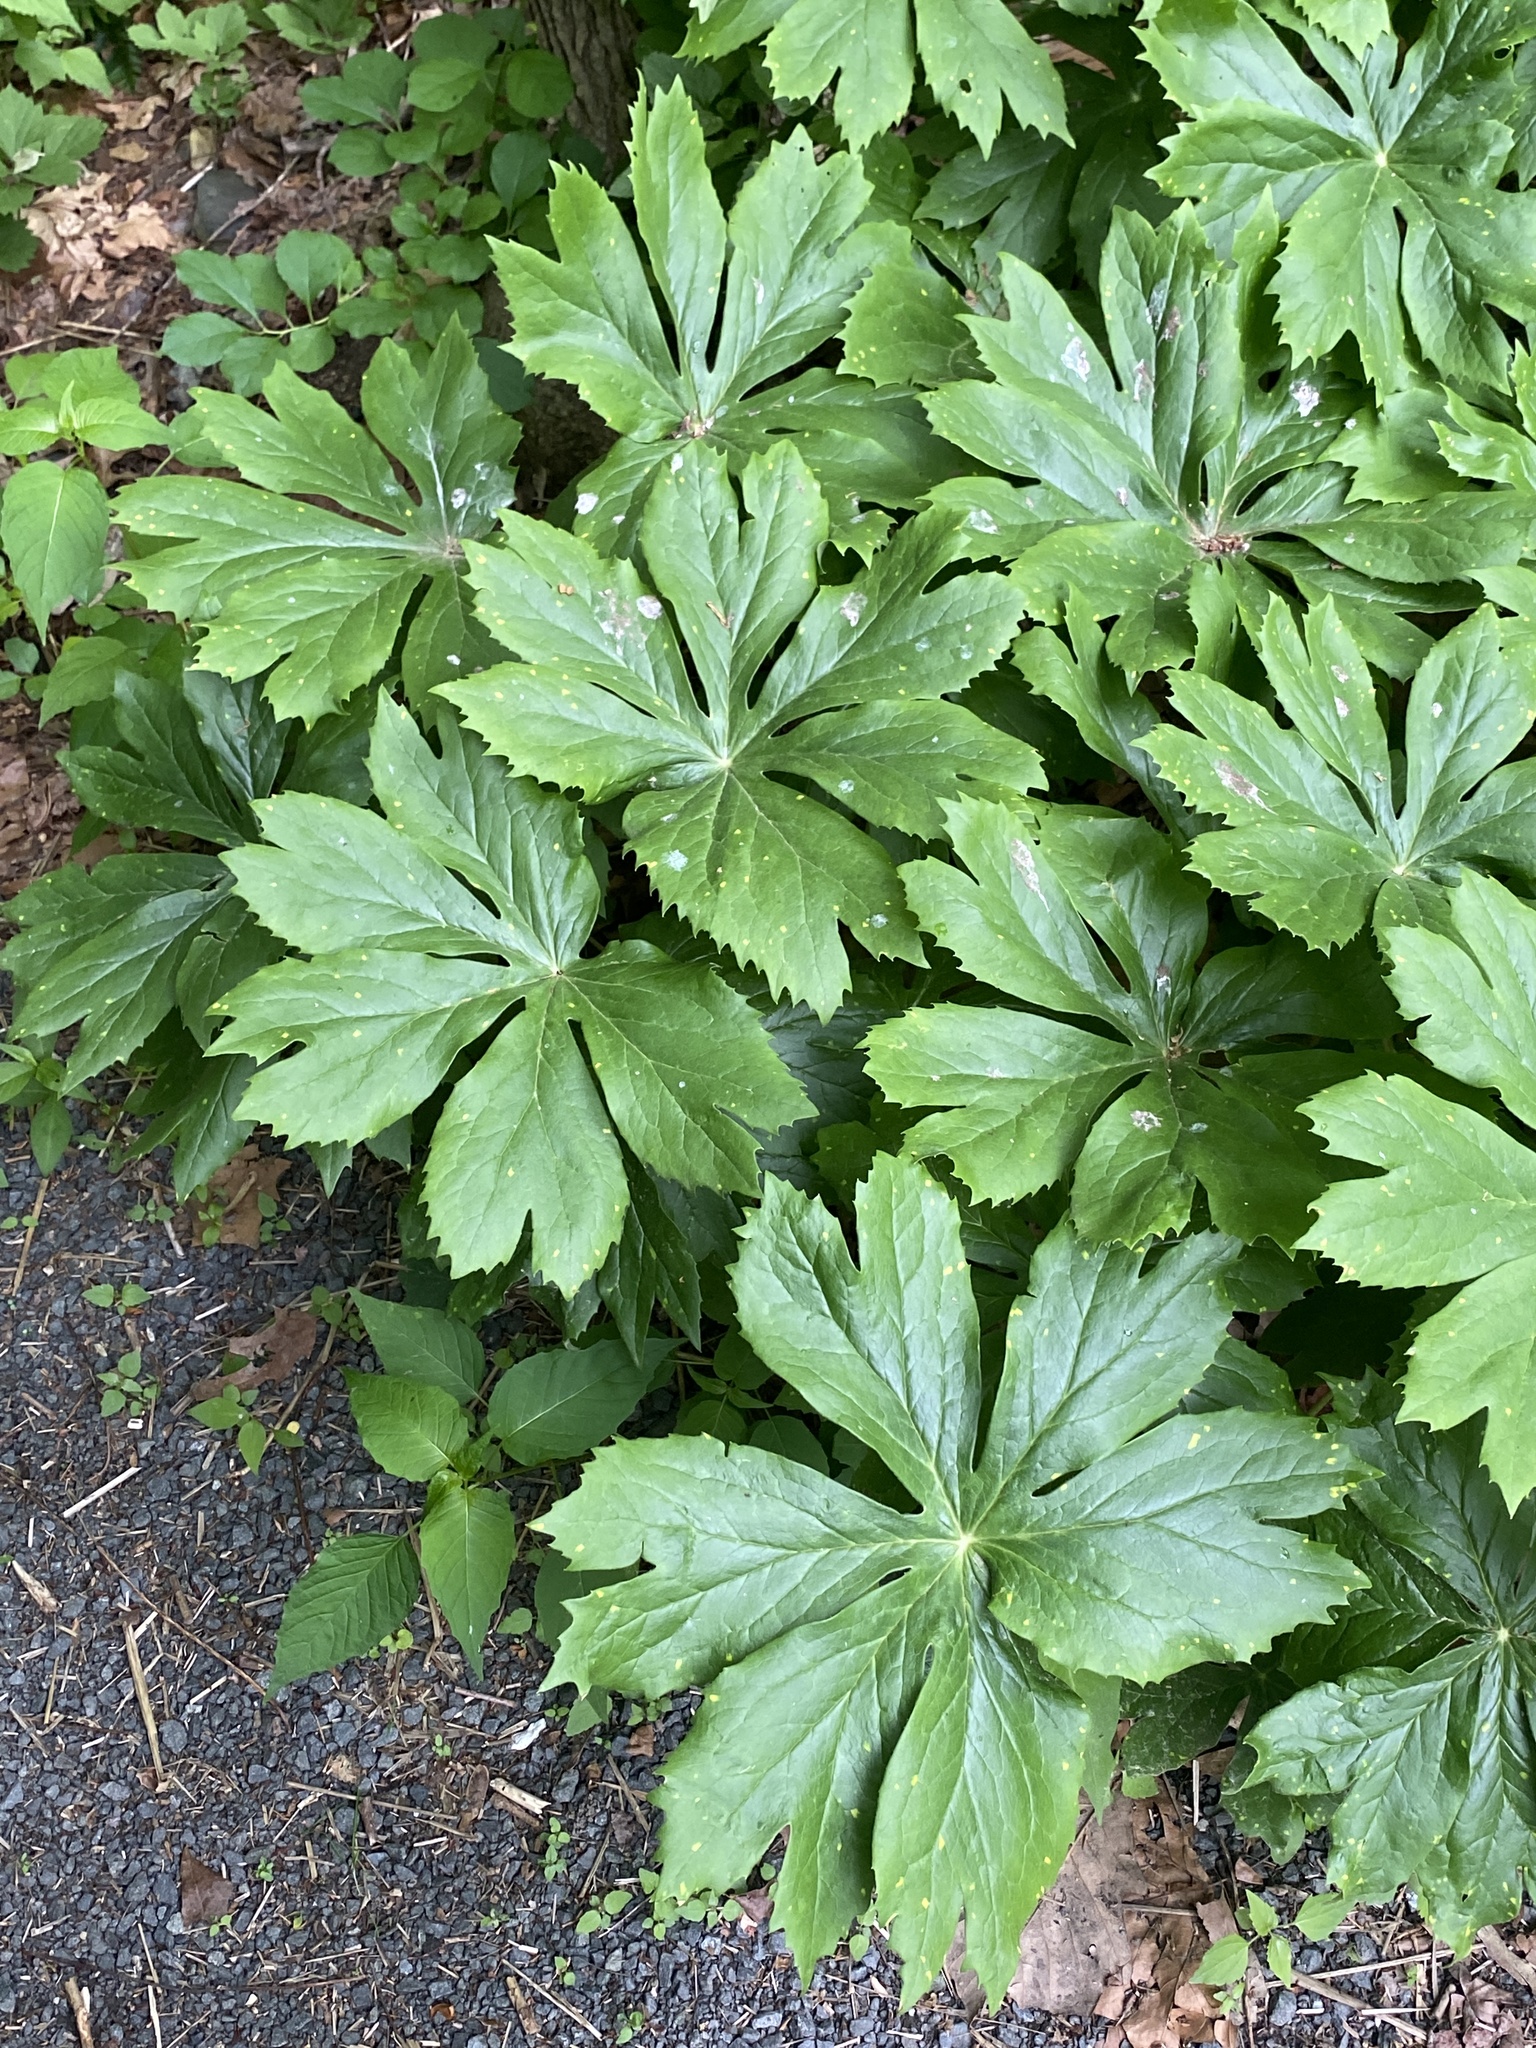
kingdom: Plantae
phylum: Tracheophyta
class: Magnoliopsida
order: Ranunculales
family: Berberidaceae
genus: Podophyllum
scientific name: Podophyllum peltatum
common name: Wild mandrake
